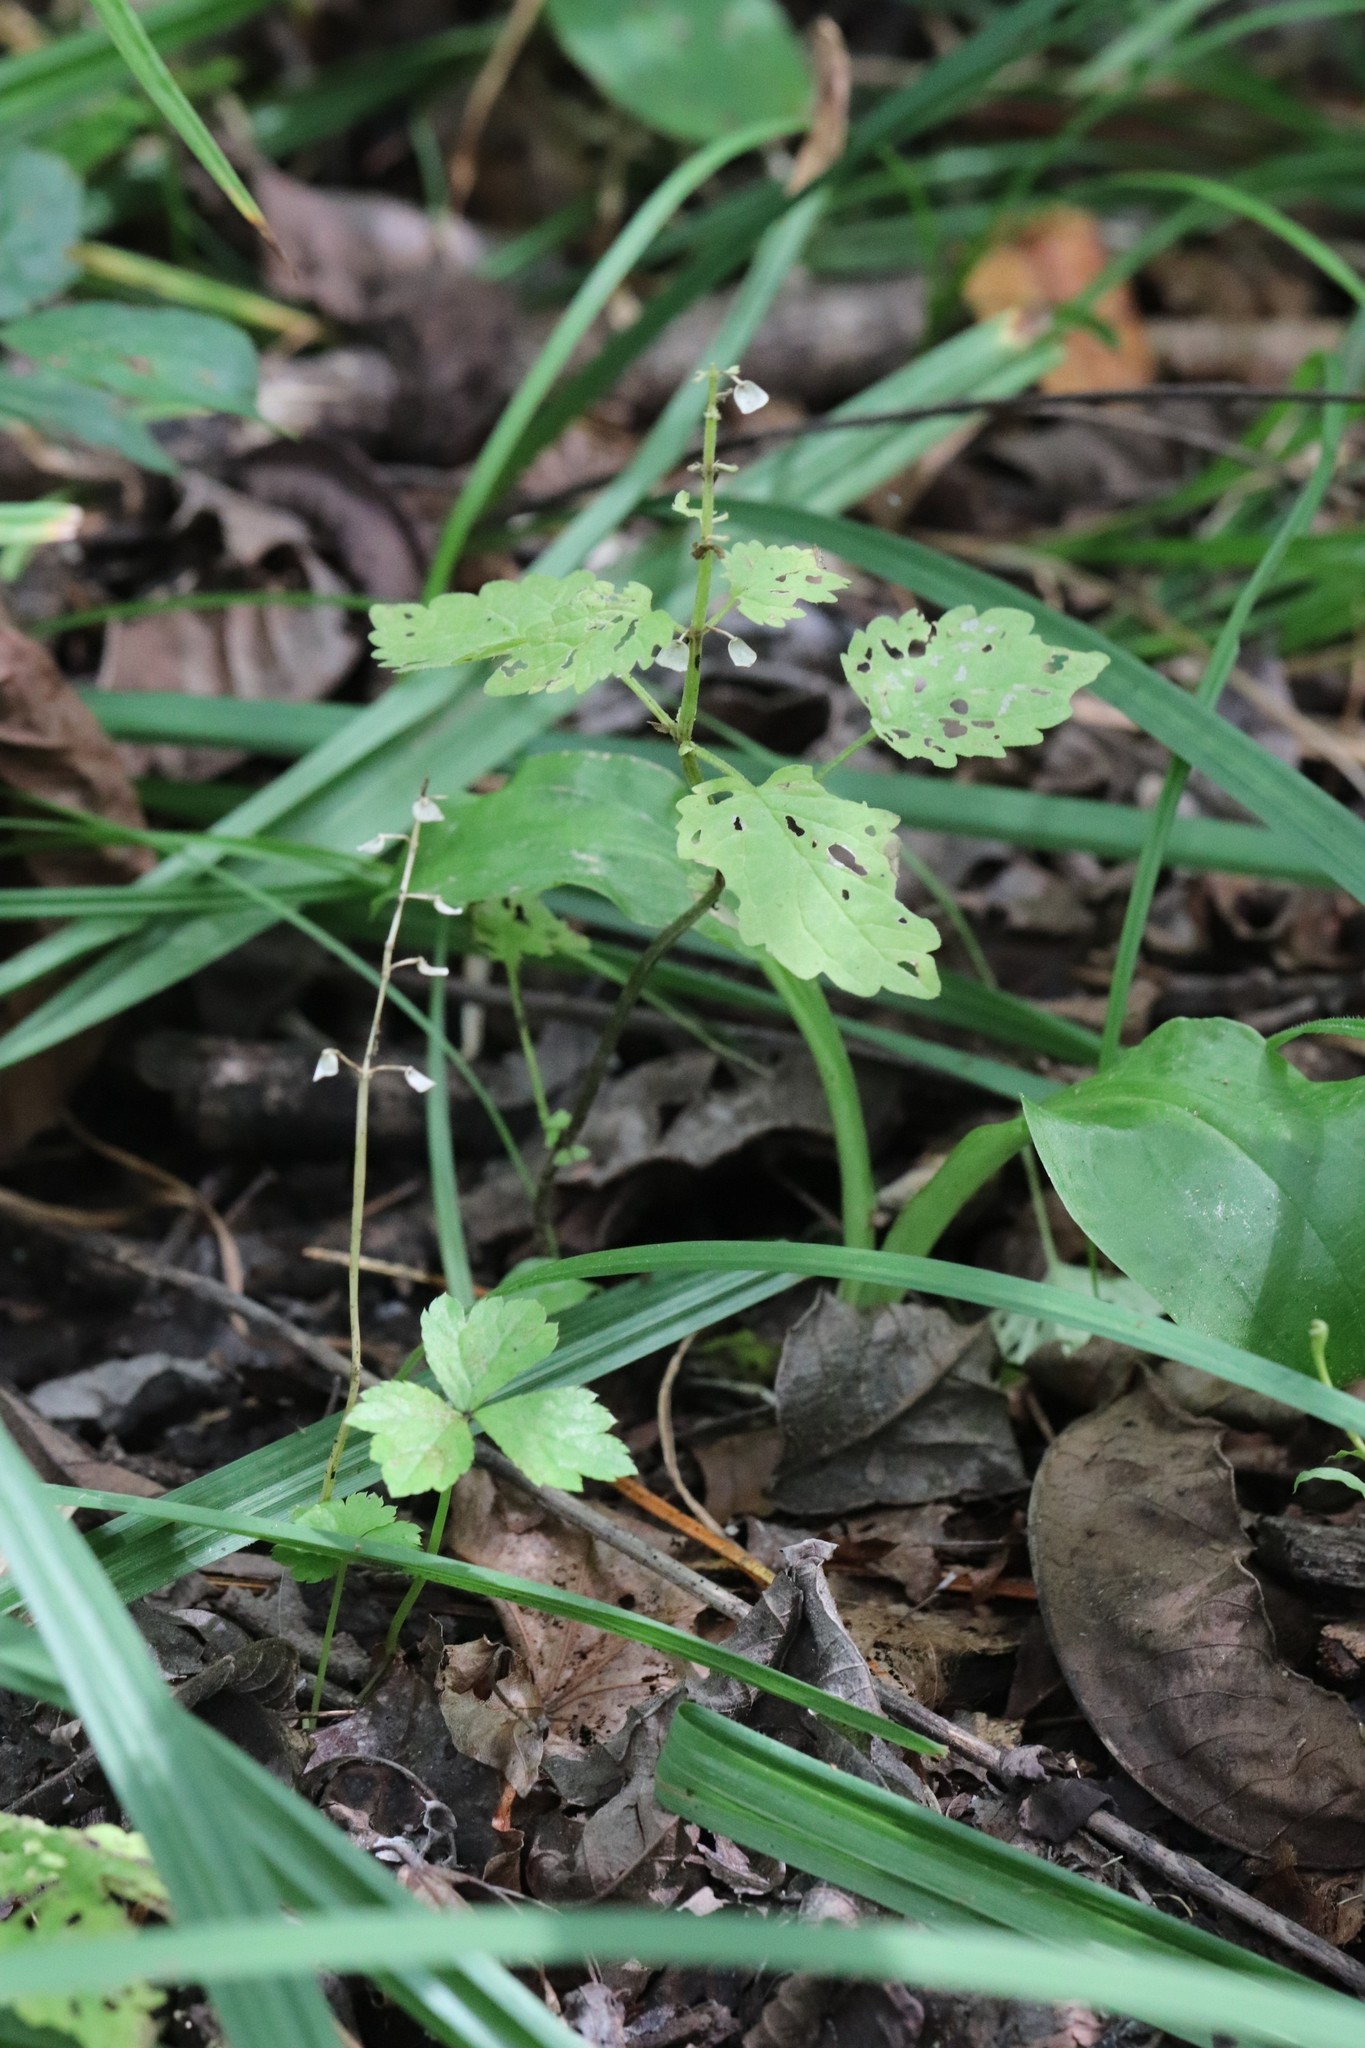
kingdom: Plantae
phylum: Tracheophyta
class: Magnoliopsida
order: Lamiales
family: Lamiaceae
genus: Scutellaria
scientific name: Scutellaria pekinensis
